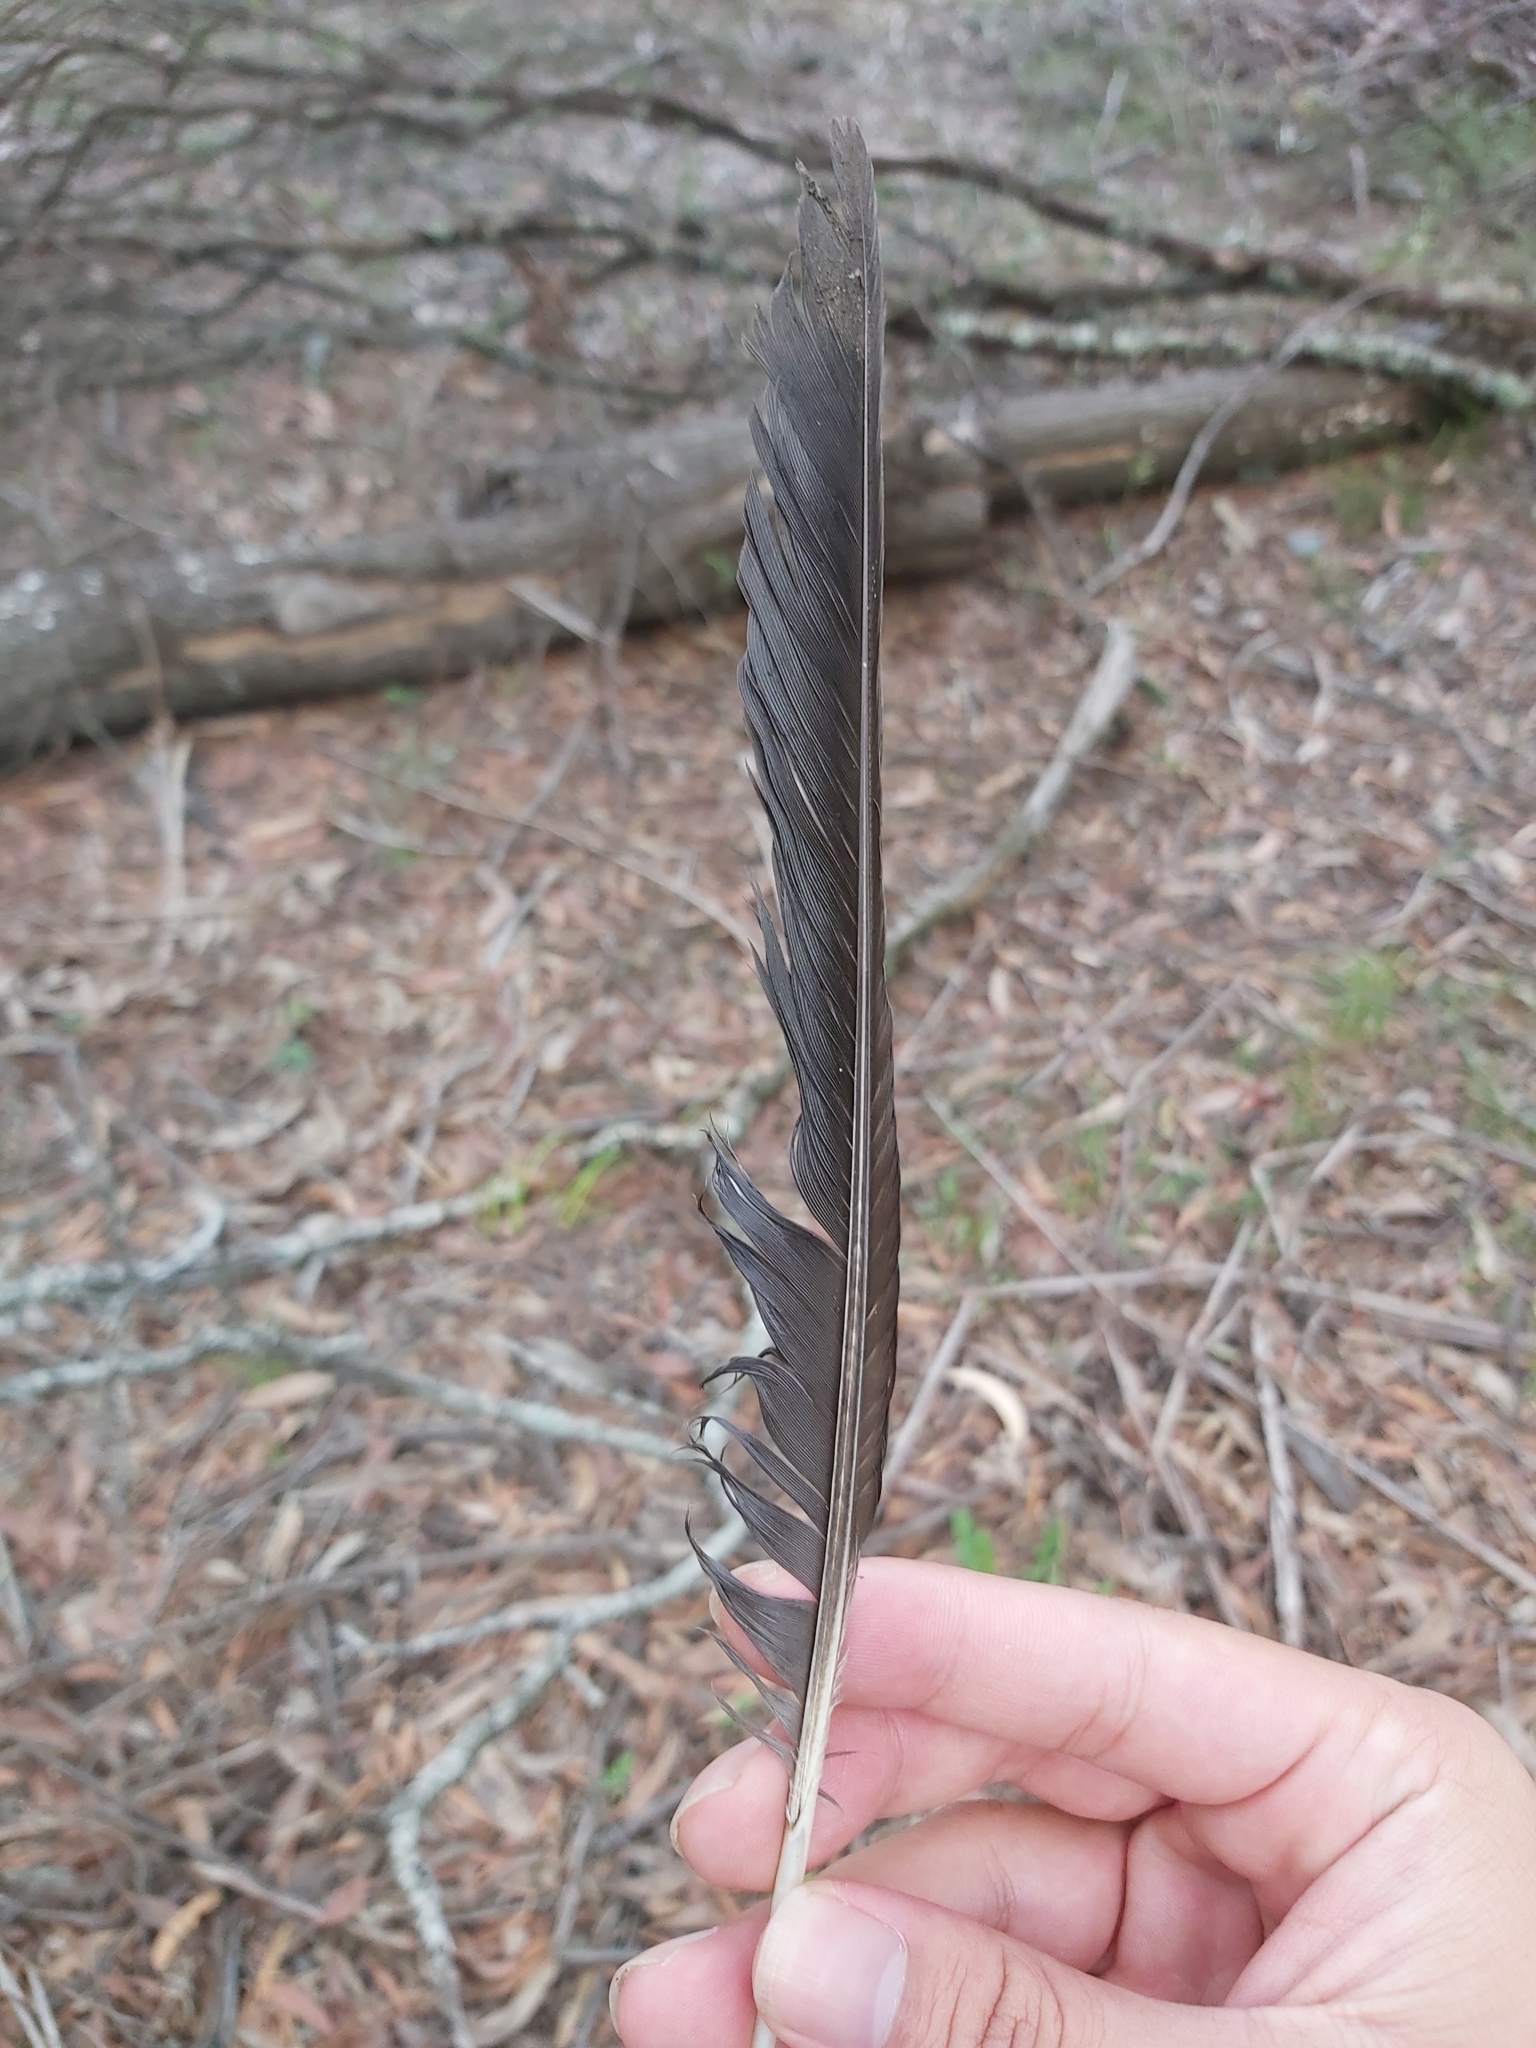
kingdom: Animalia
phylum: Chordata
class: Aves
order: Passeriformes
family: Cracticidae
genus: Gymnorhina
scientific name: Gymnorhina tibicen
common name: Australian magpie
